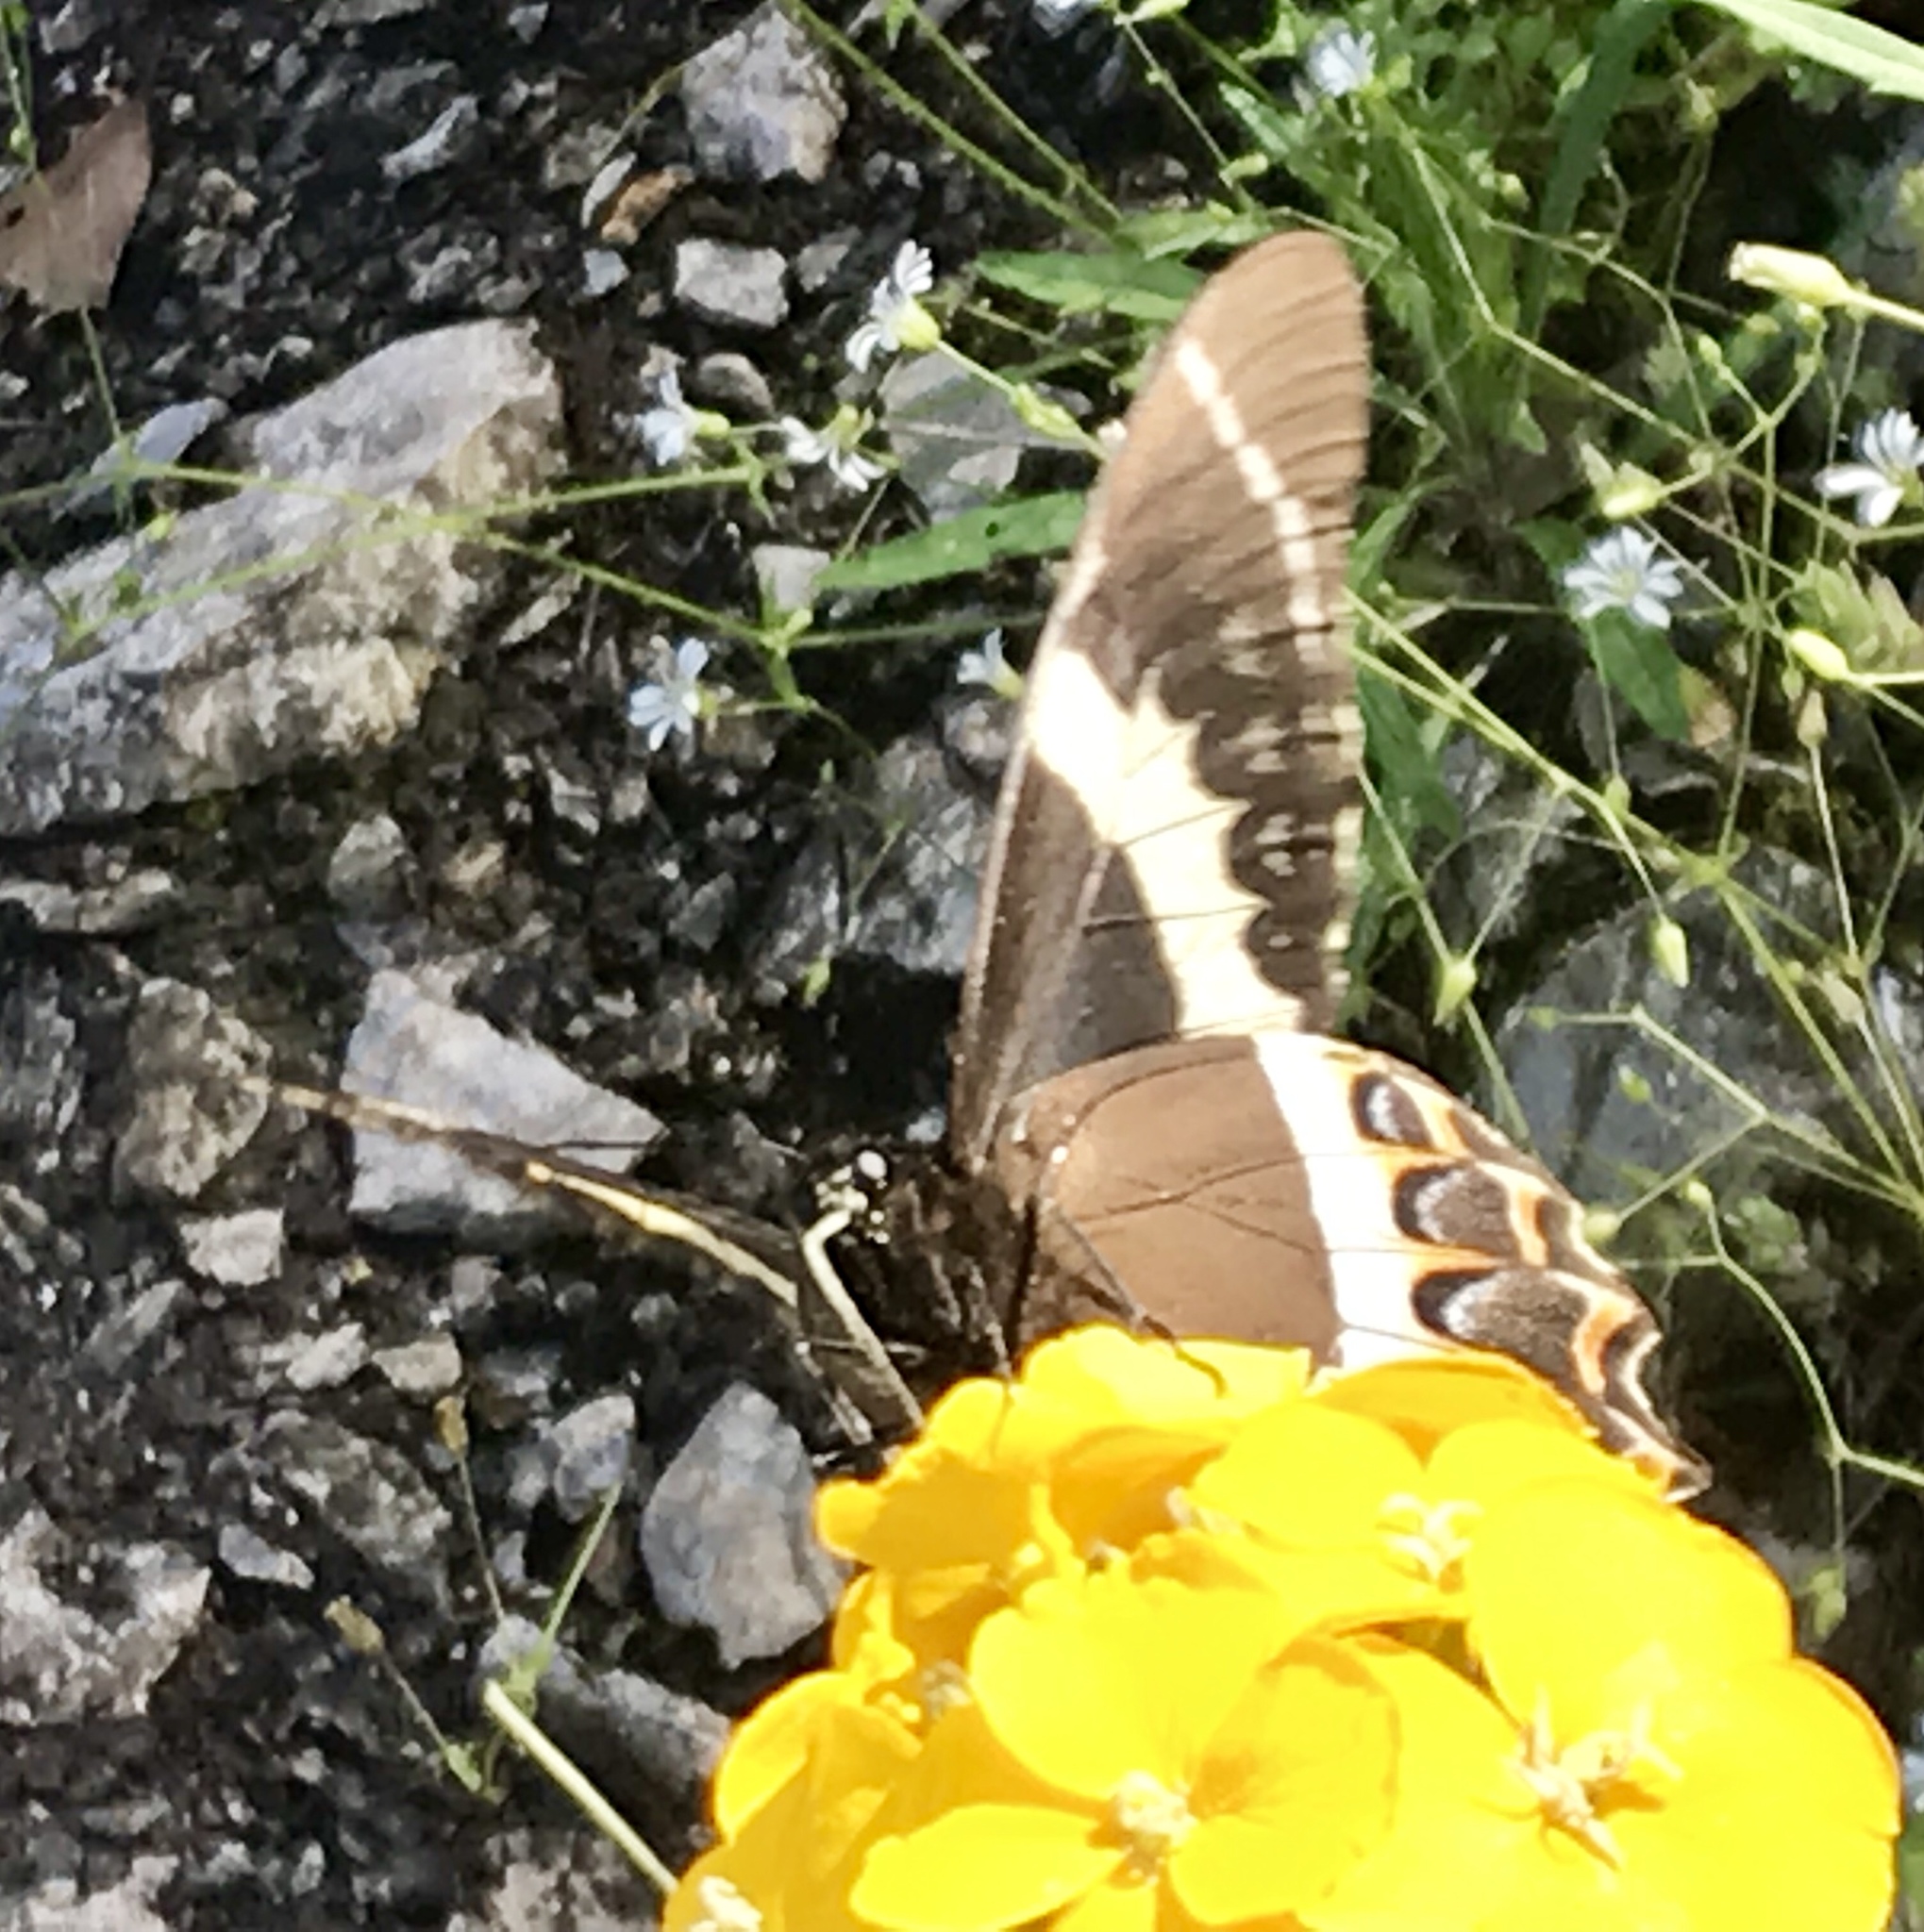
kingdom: Animalia
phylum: Arthropoda
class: Insecta
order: Lepidoptera
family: Papilionidae
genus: Papilio
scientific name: Papilio garamas
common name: Magnificent swallowtail
